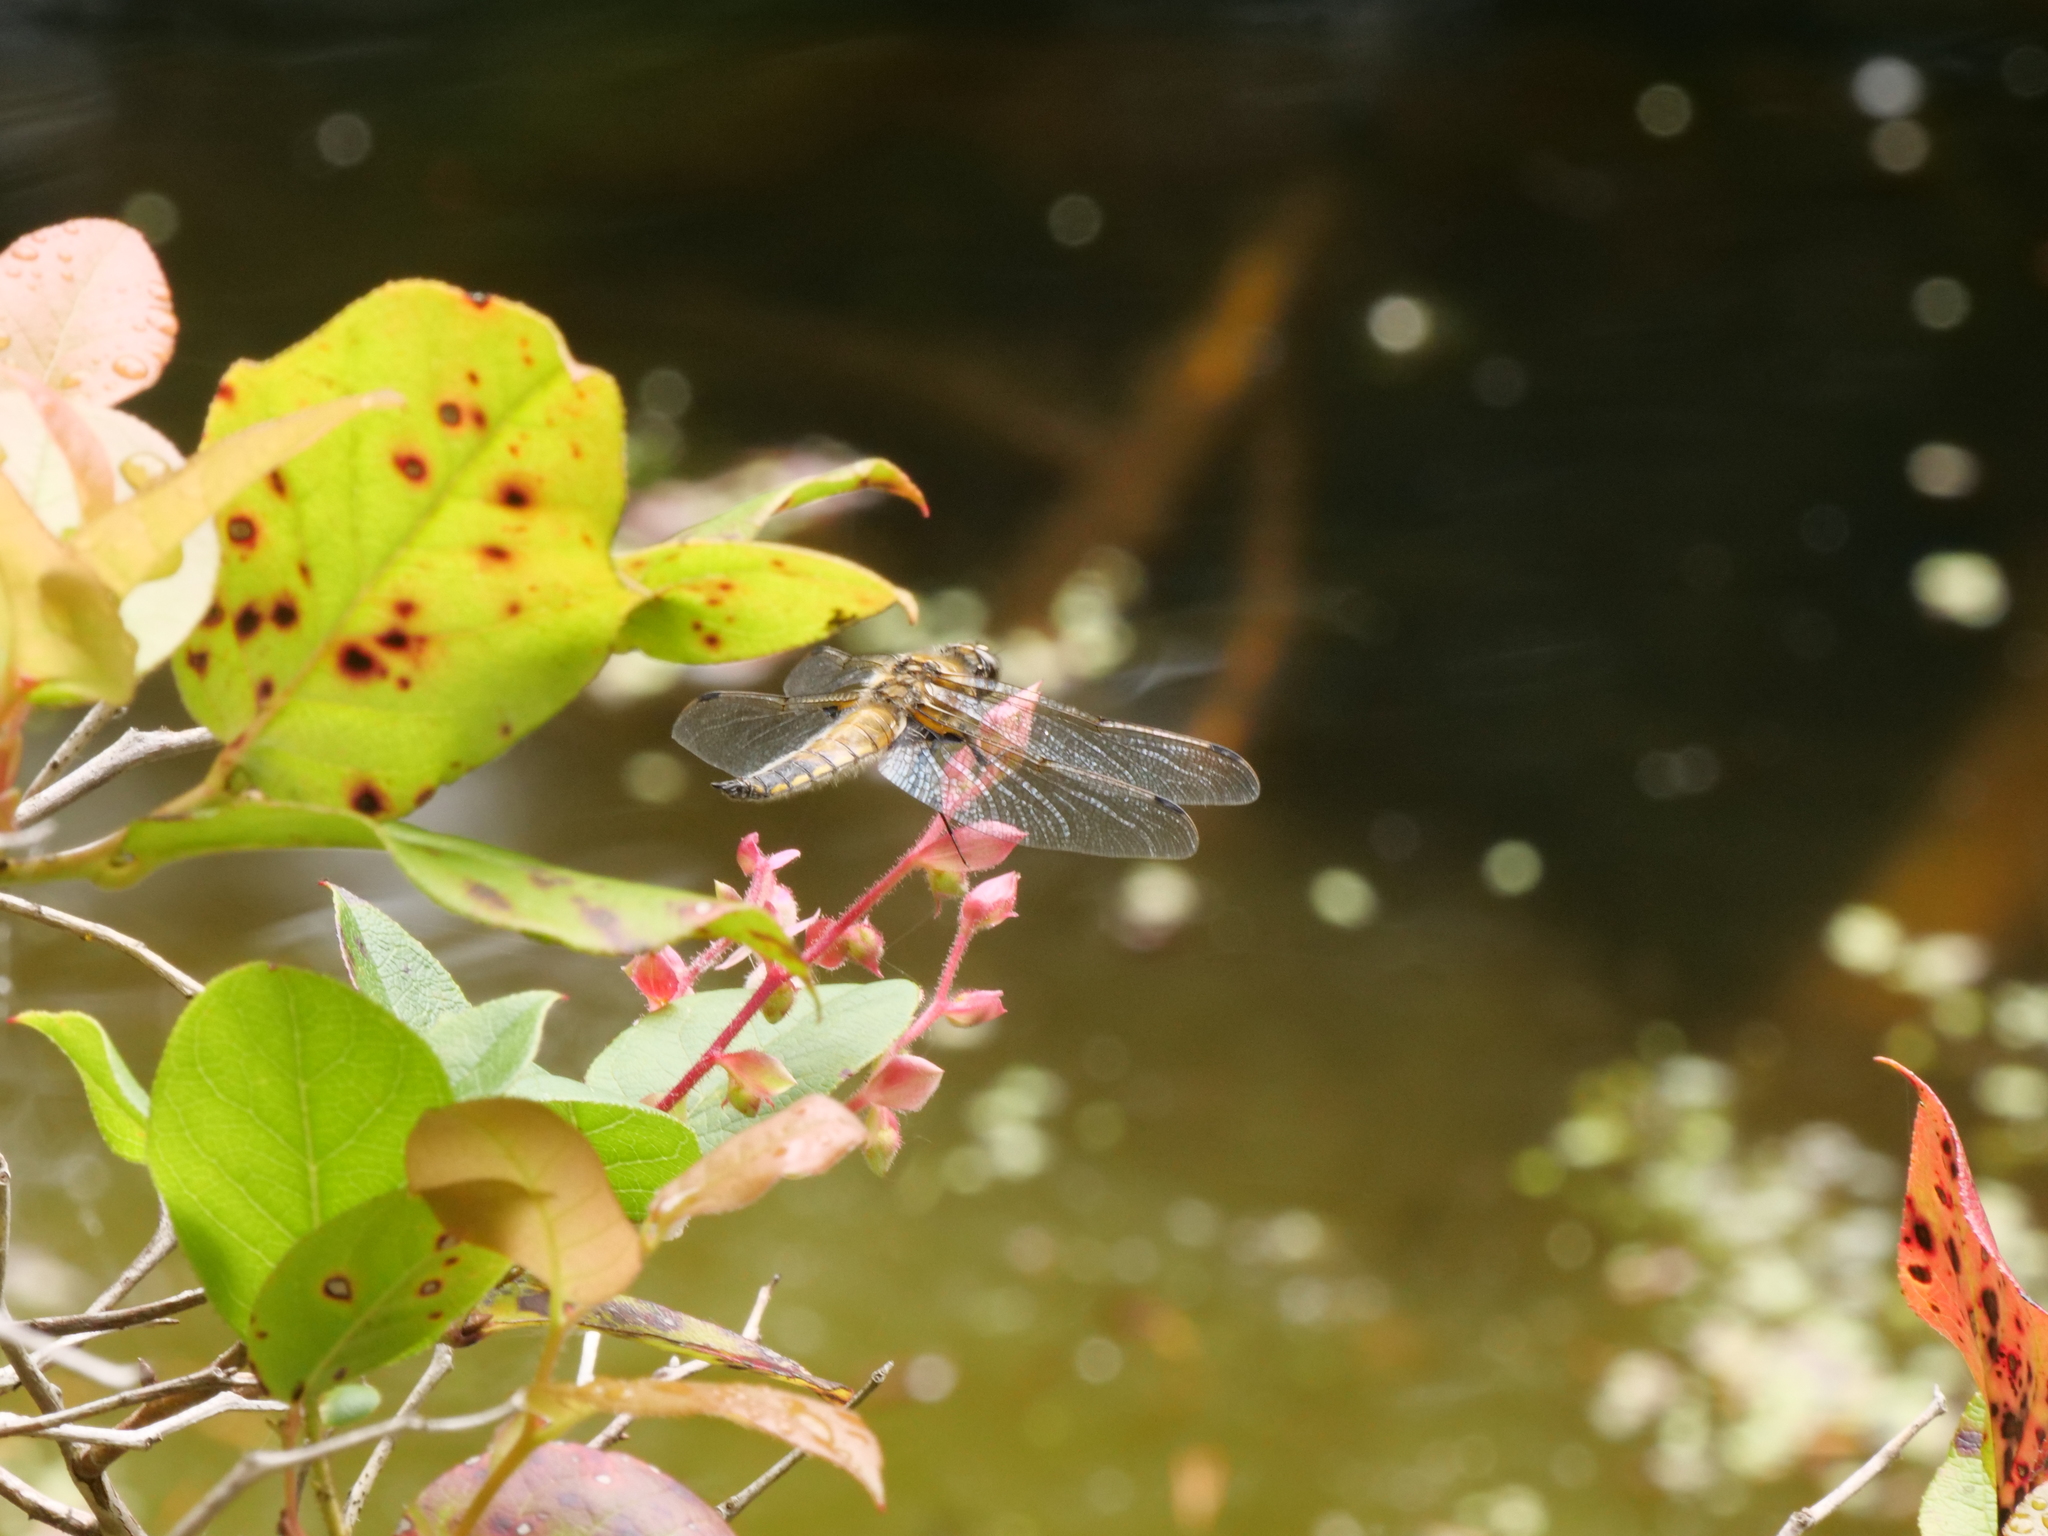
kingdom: Animalia
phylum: Arthropoda
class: Insecta
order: Odonata
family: Libellulidae
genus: Libellula
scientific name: Libellula quadrimaculata
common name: Four-spotted chaser
